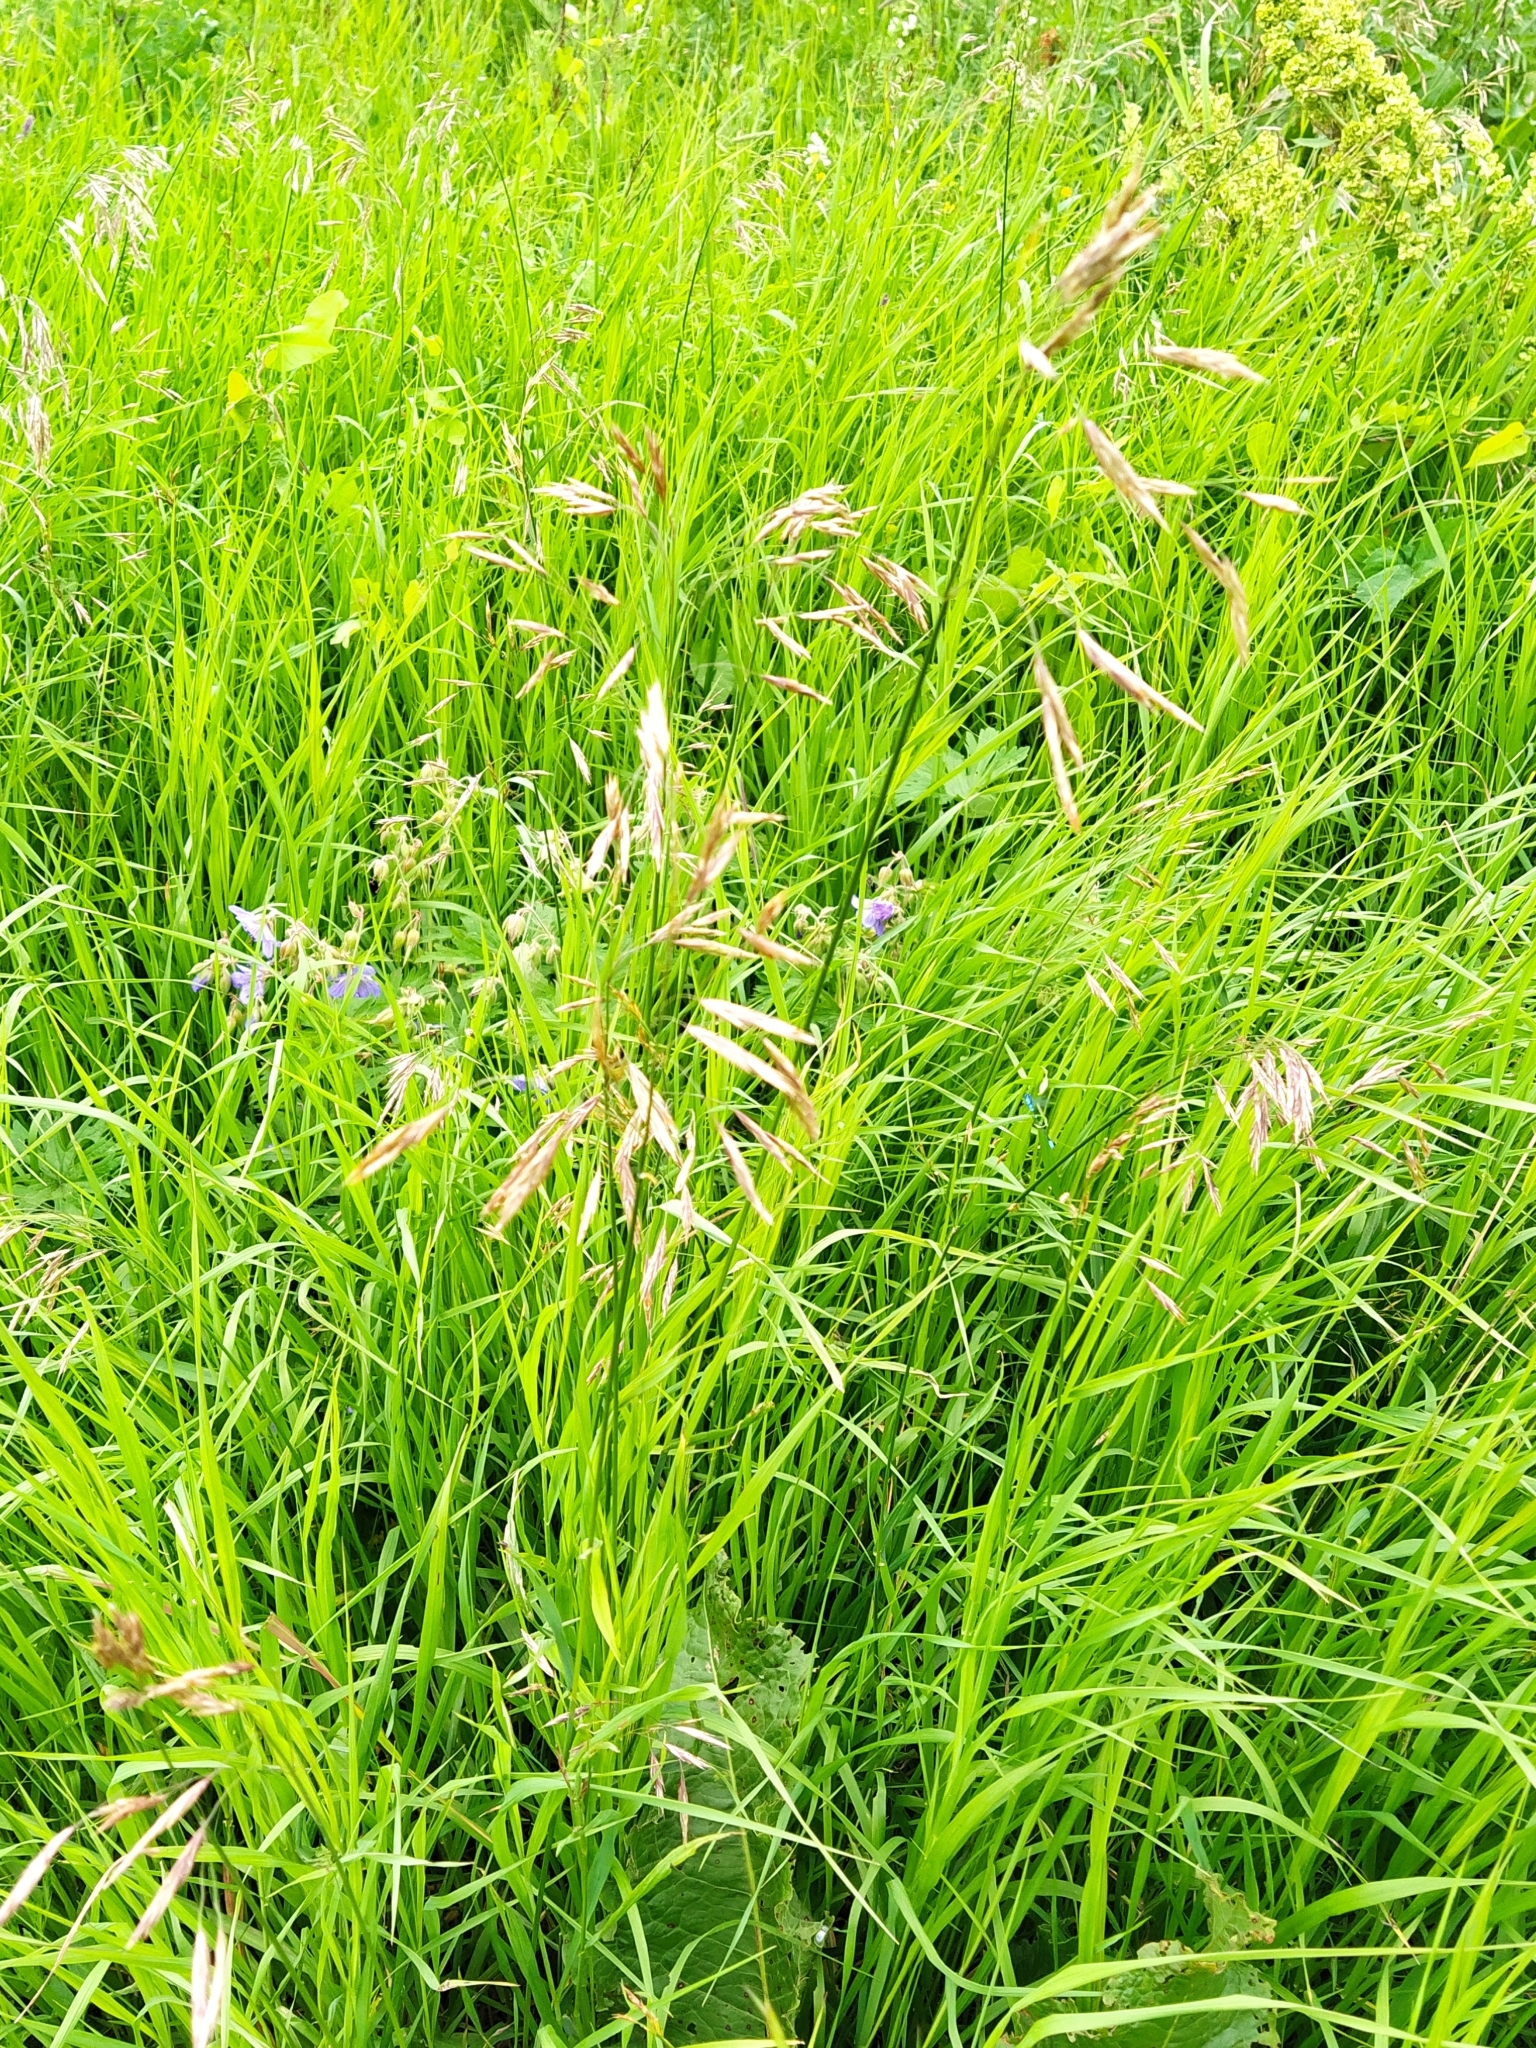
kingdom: Plantae
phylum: Tracheophyta
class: Liliopsida
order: Poales
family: Poaceae
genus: Bromus
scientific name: Bromus inermis
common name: Smooth brome
